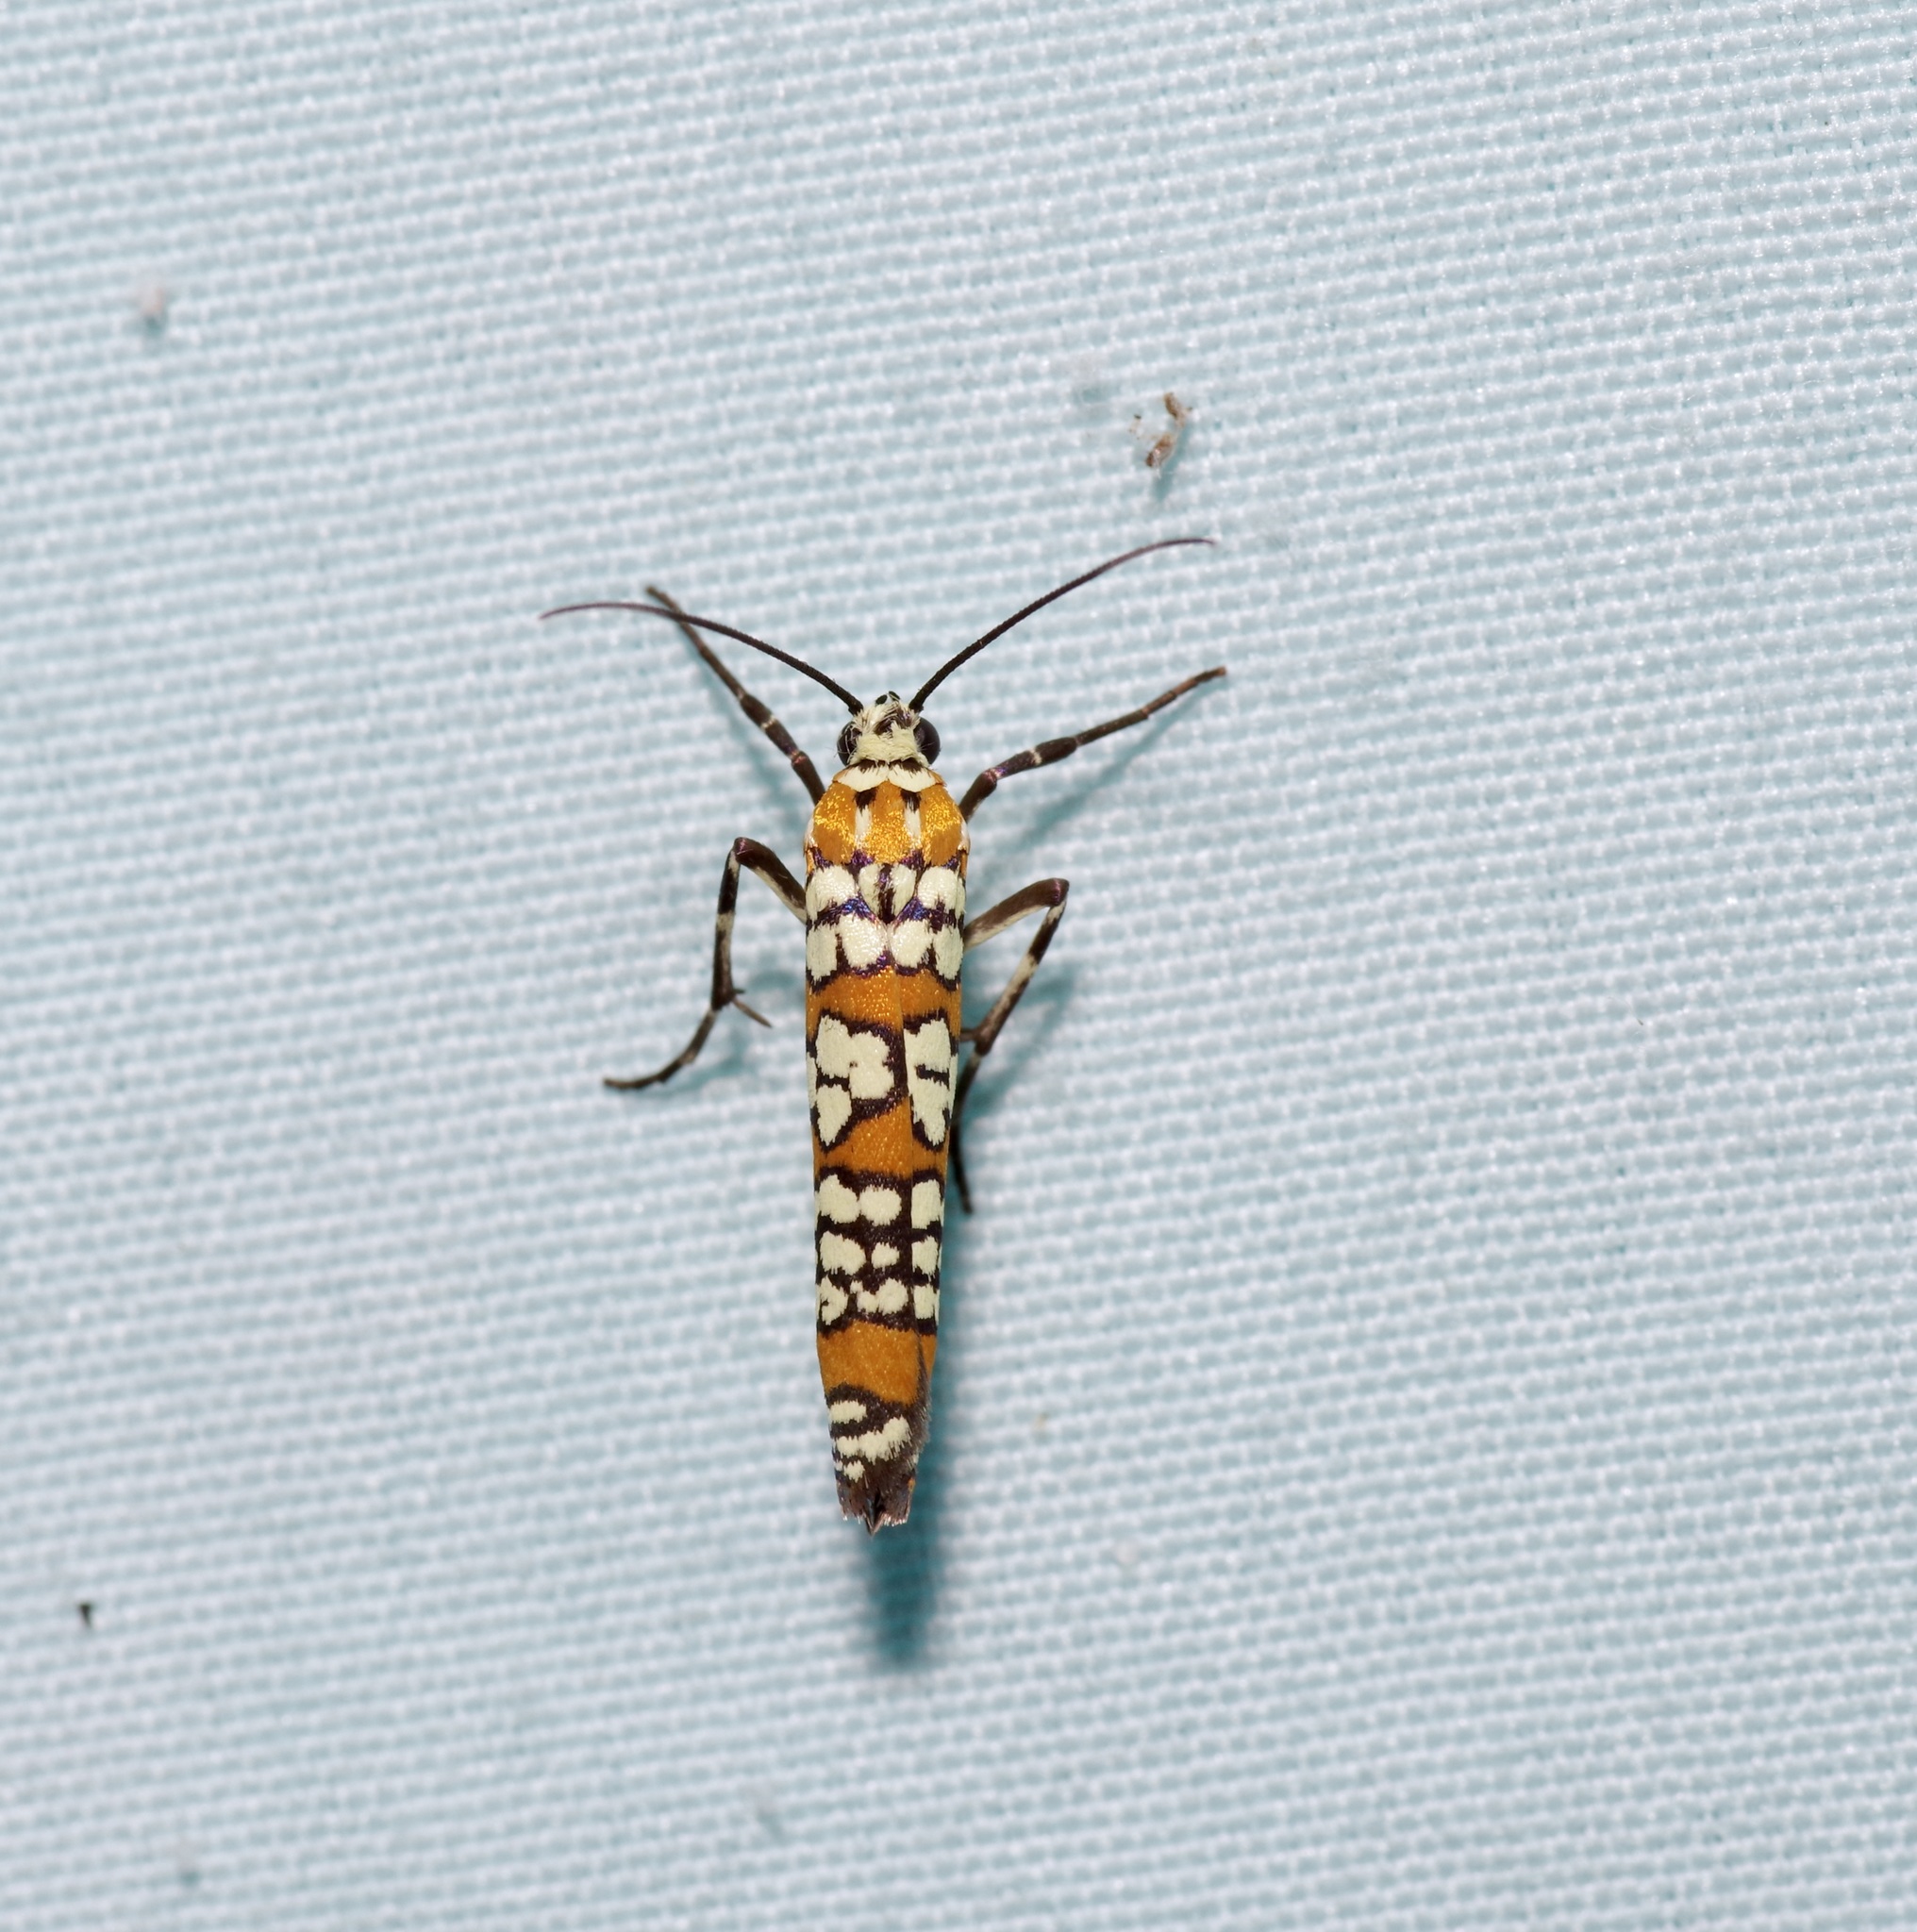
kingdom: Animalia
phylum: Arthropoda
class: Insecta
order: Lepidoptera
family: Attevidae
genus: Atteva
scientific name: Atteva punctella
